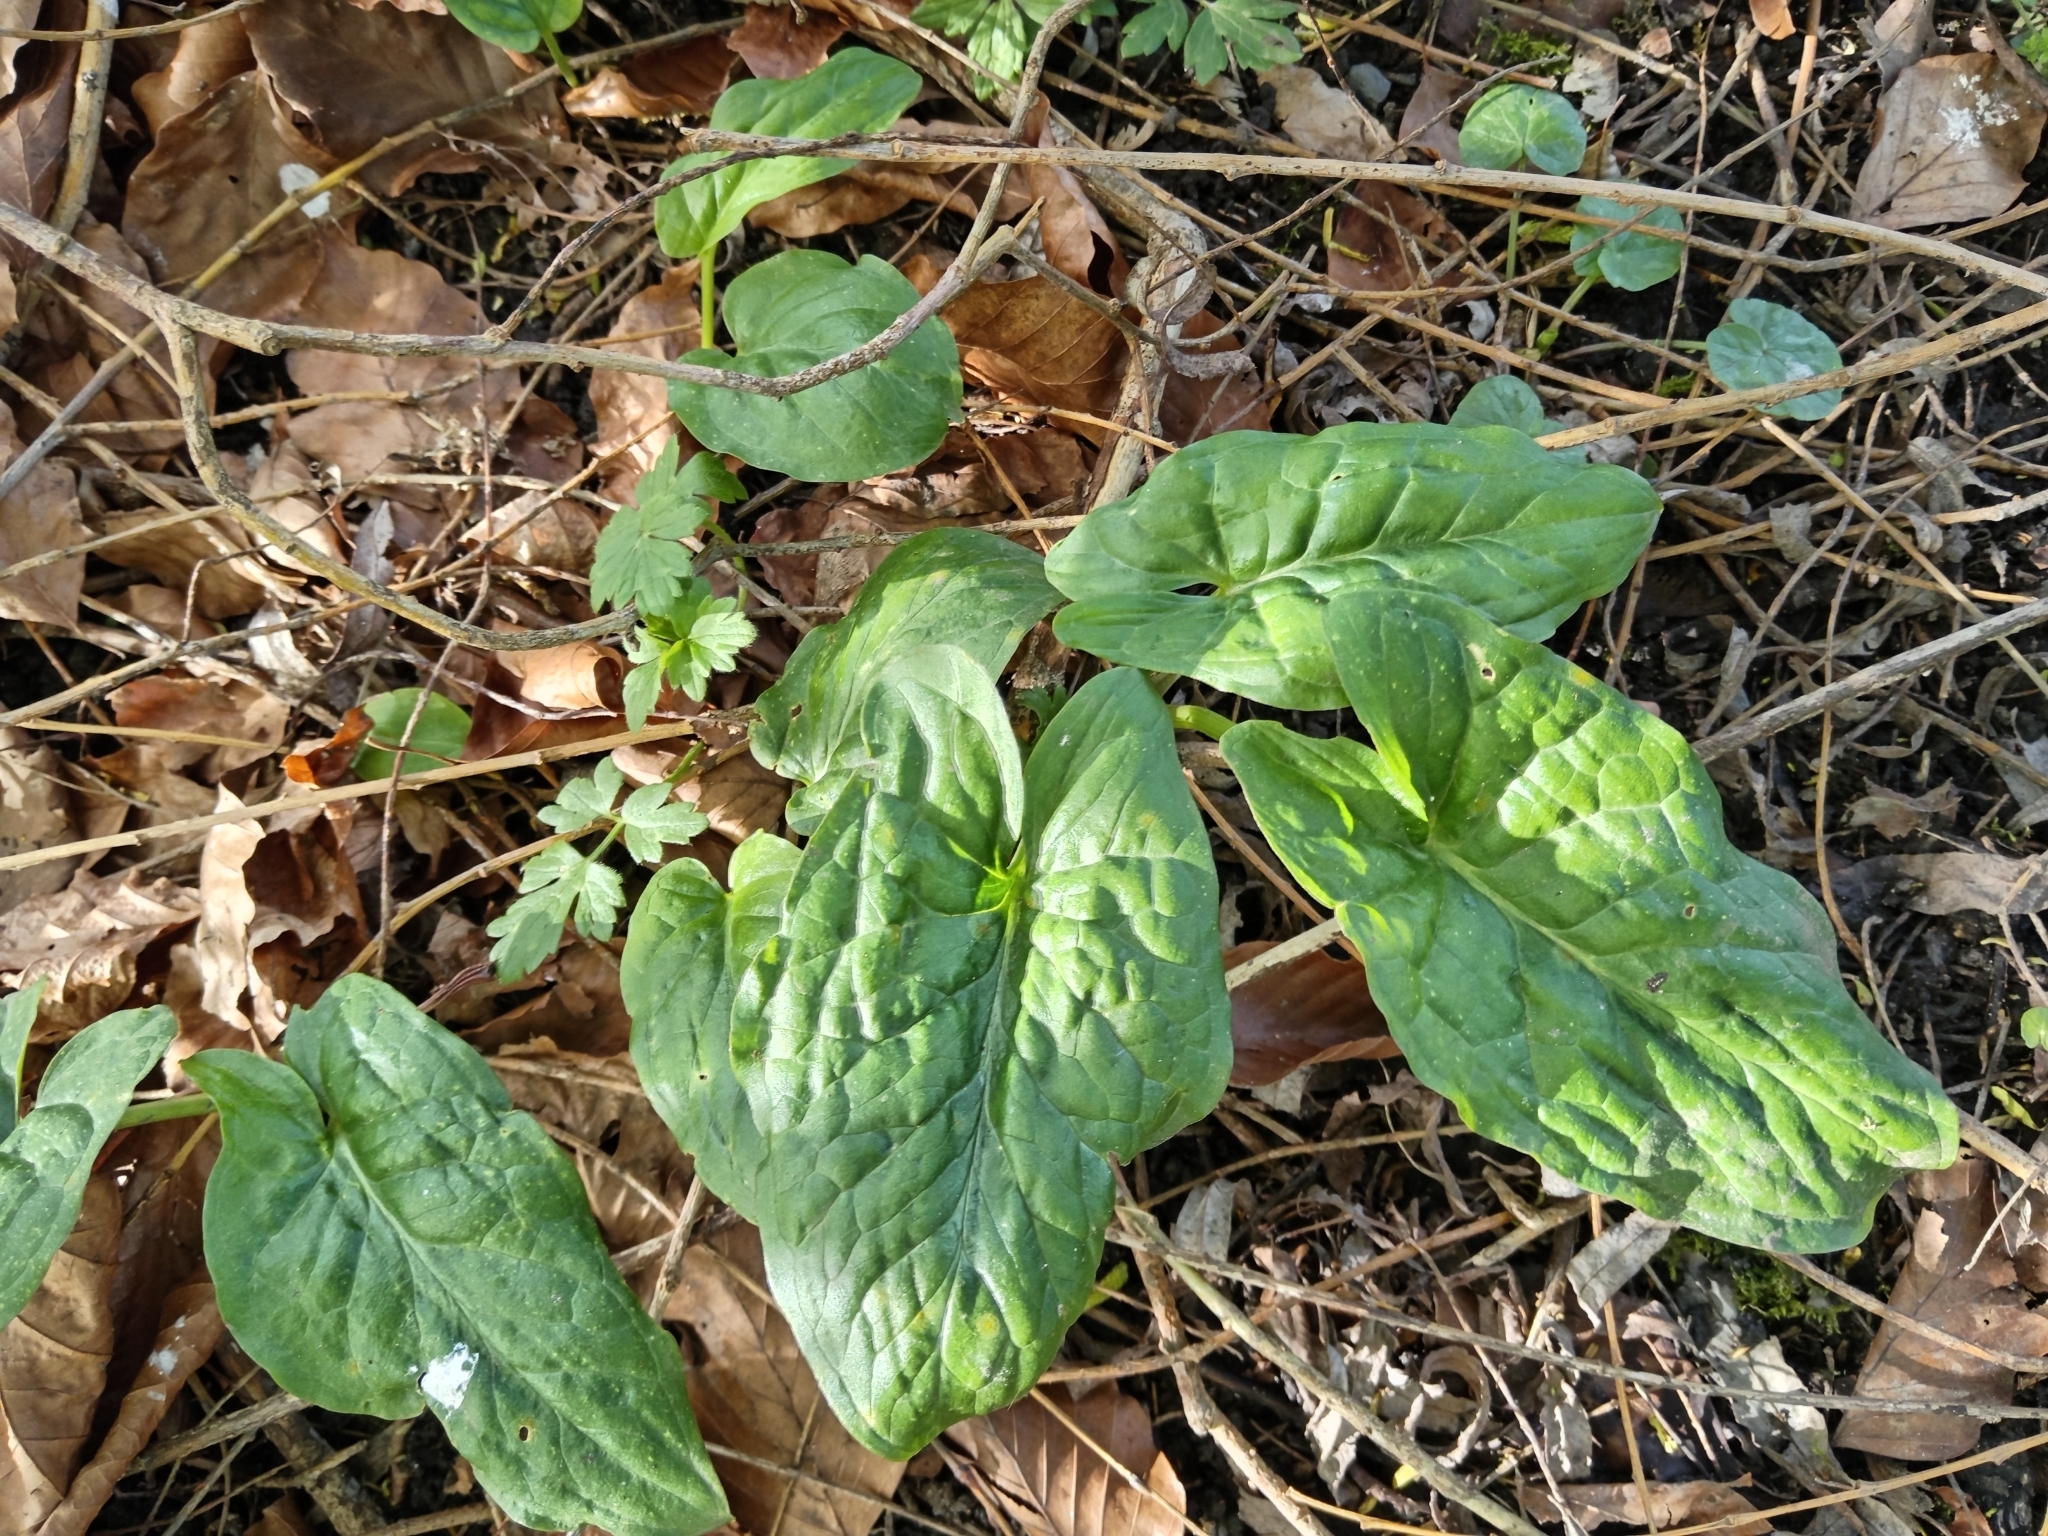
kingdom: Plantae
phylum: Tracheophyta
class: Liliopsida
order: Alismatales
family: Araceae
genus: Arum
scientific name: Arum maculatum
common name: Lords-and-ladies
